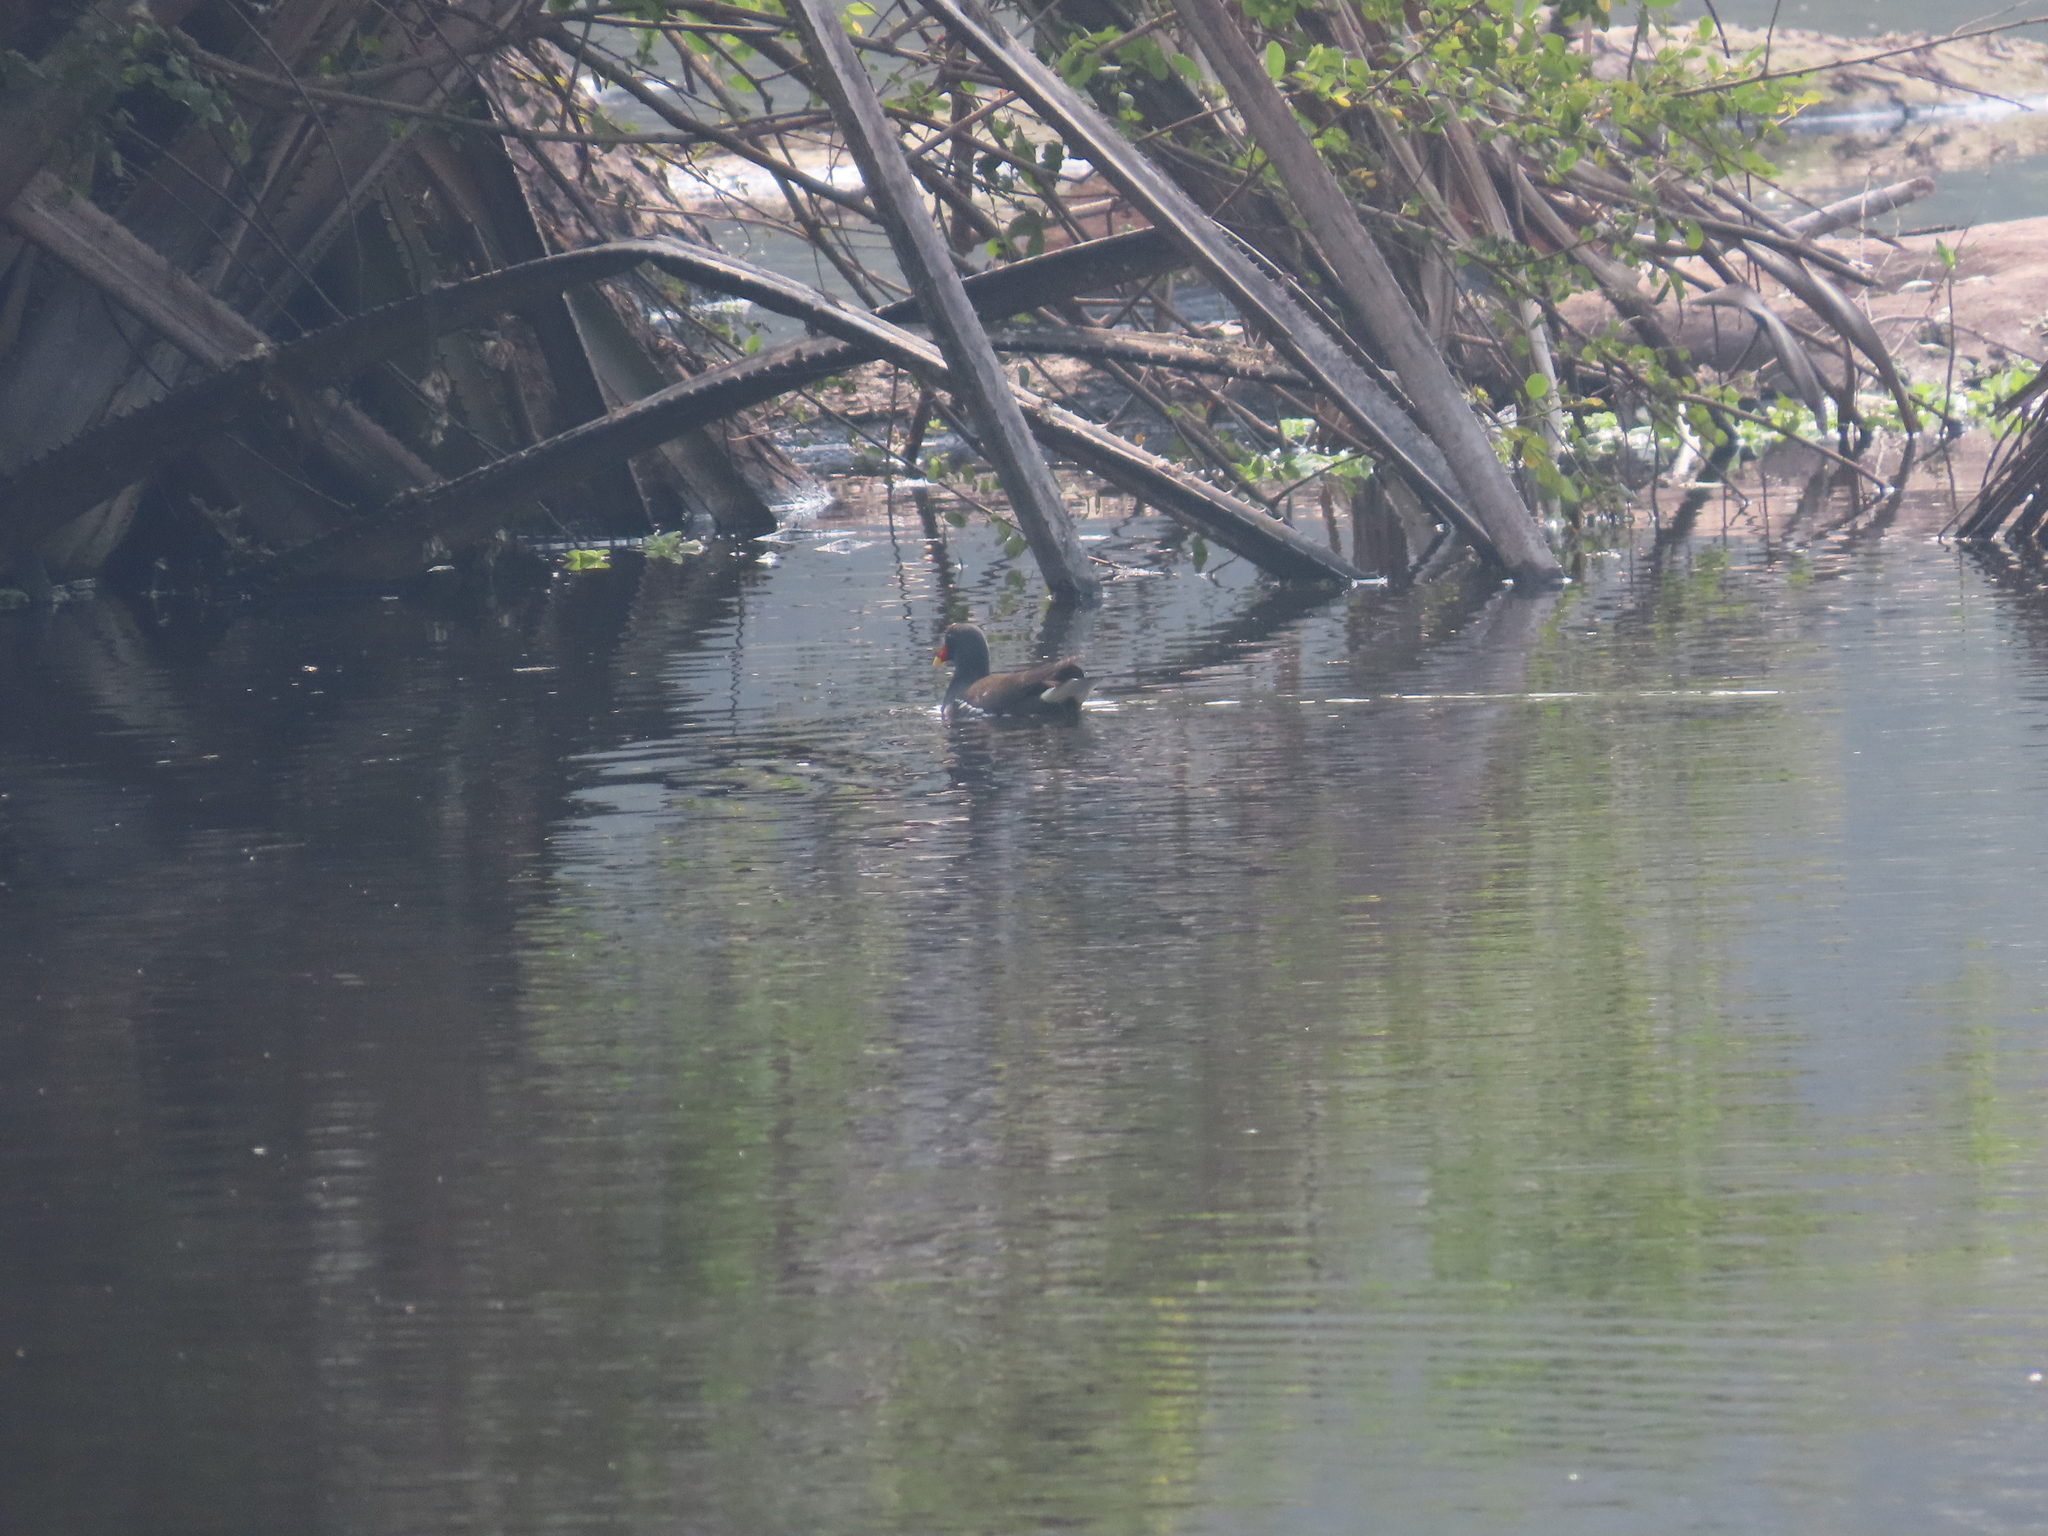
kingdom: Animalia
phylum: Chordata
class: Aves
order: Gruiformes
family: Rallidae
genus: Gallinula
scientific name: Gallinula chloropus
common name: Common moorhen
